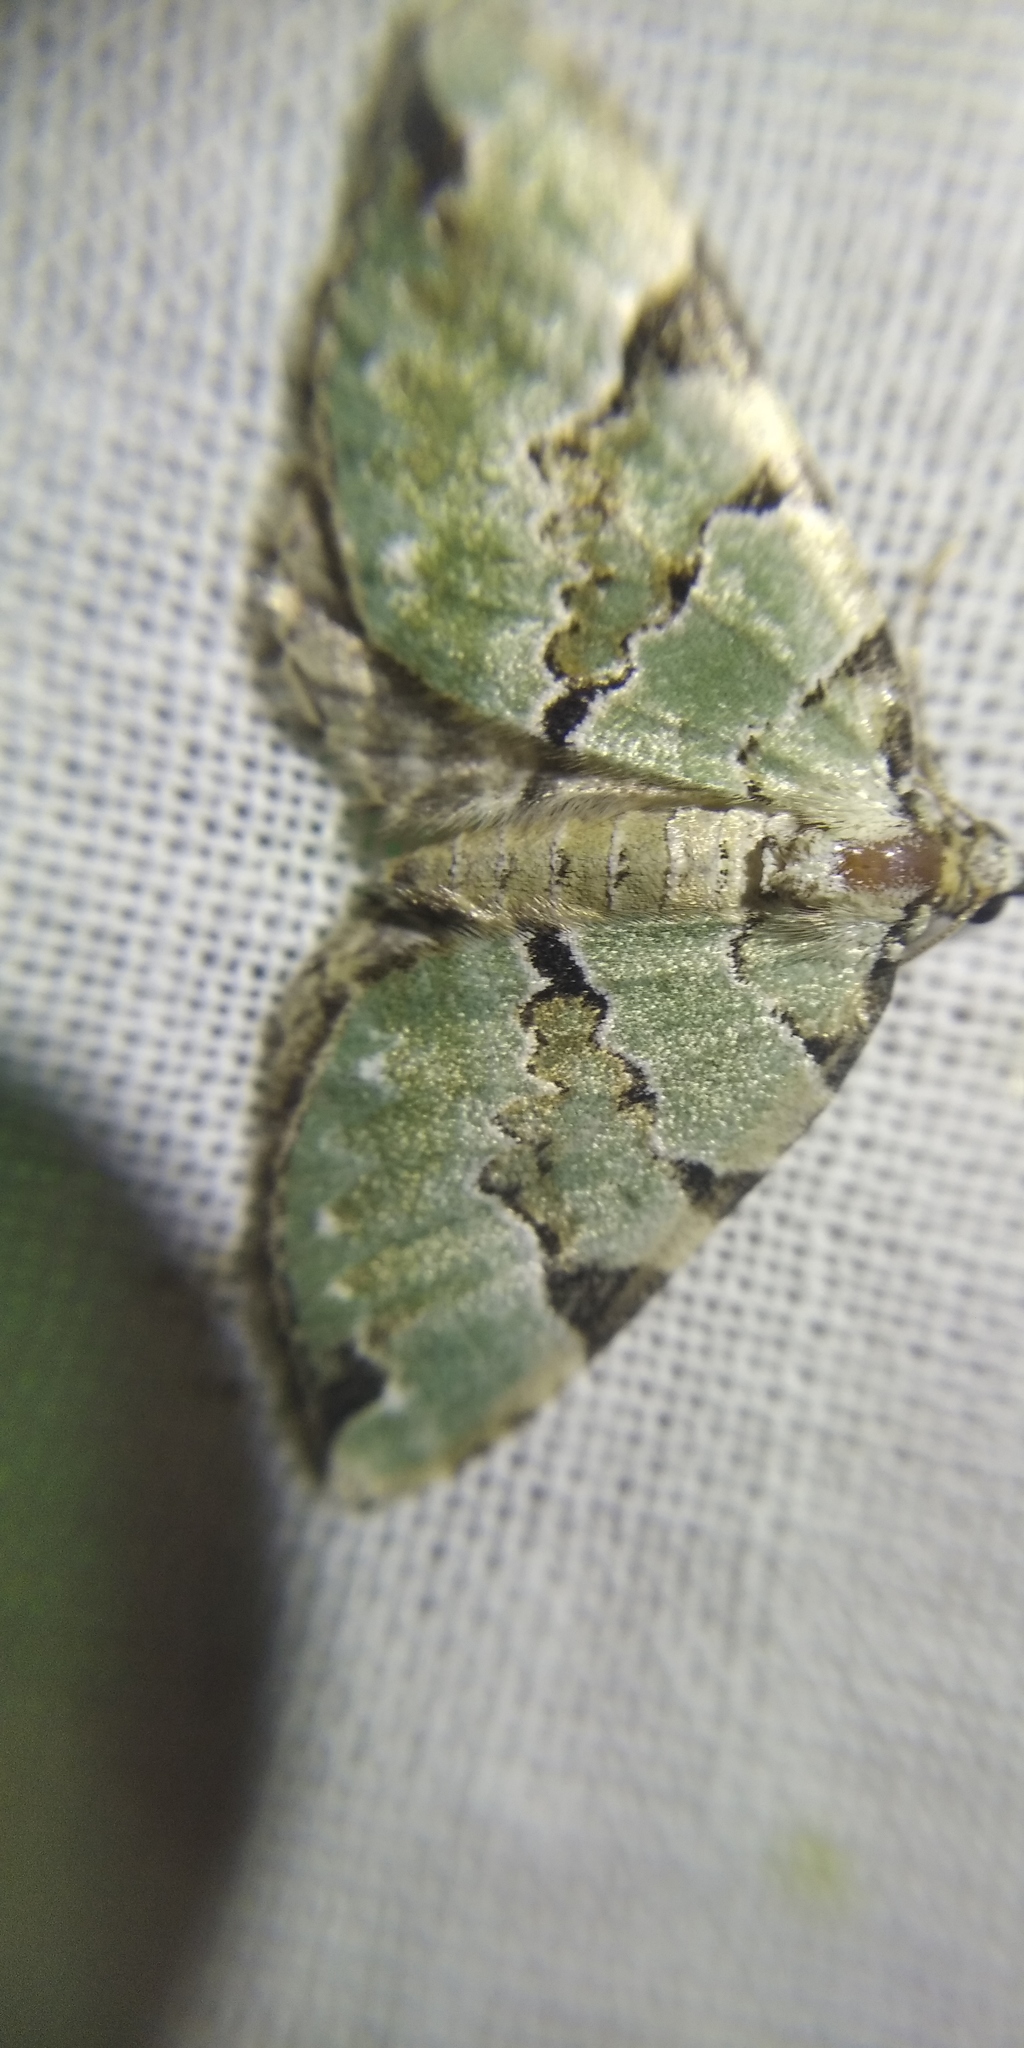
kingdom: Animalia
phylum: Arthropoda
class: Insecta
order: Lepidoptera
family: Geometridae
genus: Colostygia
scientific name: Colostygia pectinataria
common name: Green carpet
